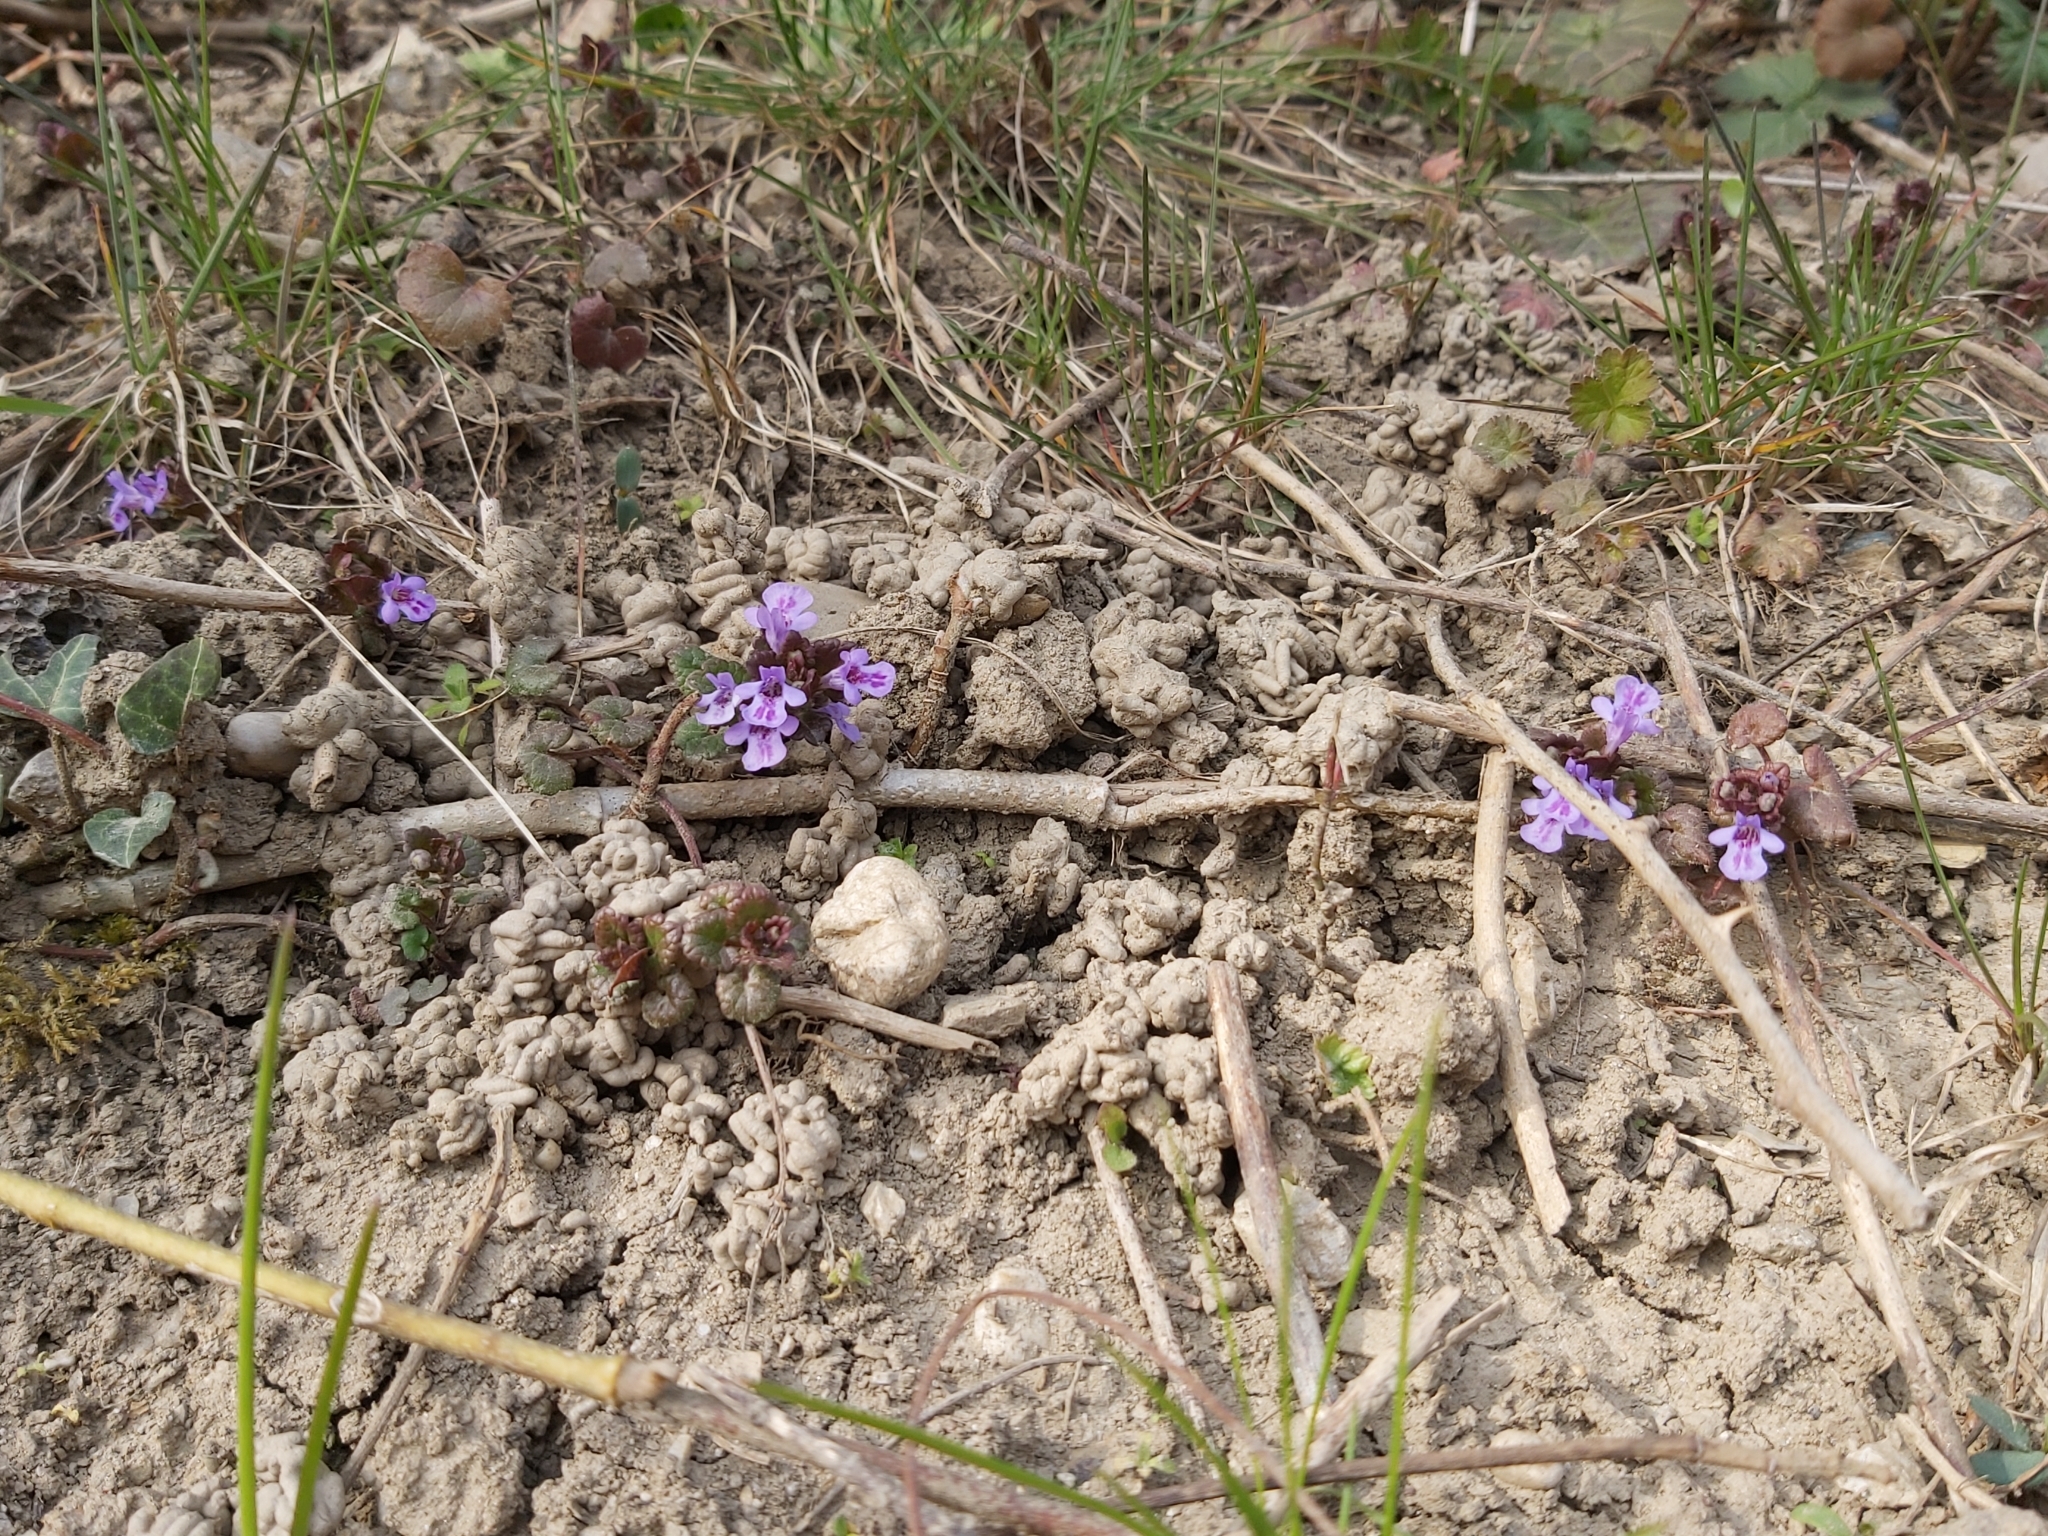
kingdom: Plantae
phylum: Tracheophyta
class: Magnoliopsida
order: Lamiales
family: Lamiaceae
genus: Glechoma
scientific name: Glechoma hederacea
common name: Ground ivy
